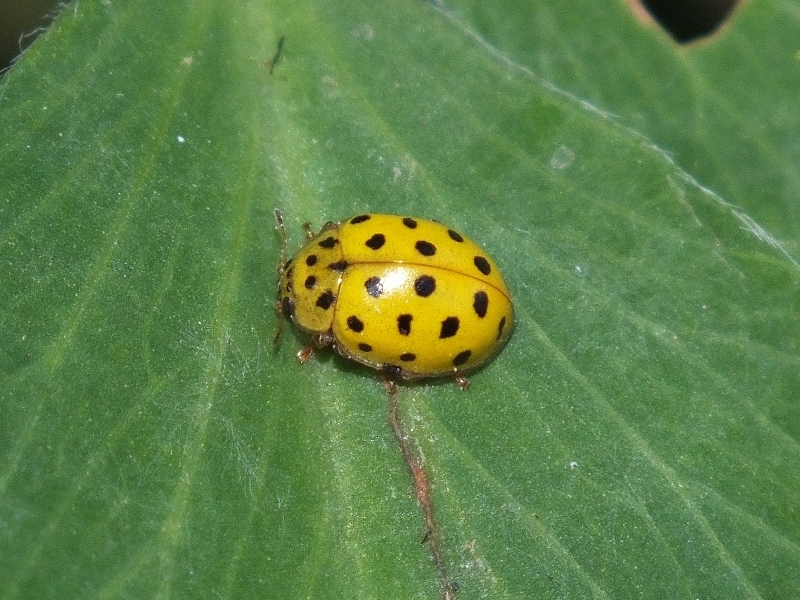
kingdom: Animalia
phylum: Arthropoda
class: Insecta
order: Coleoptera
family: Coccinellidae
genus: Psyllobora
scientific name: Psyllobora vigintiduopunctata
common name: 22-spot ladybird
